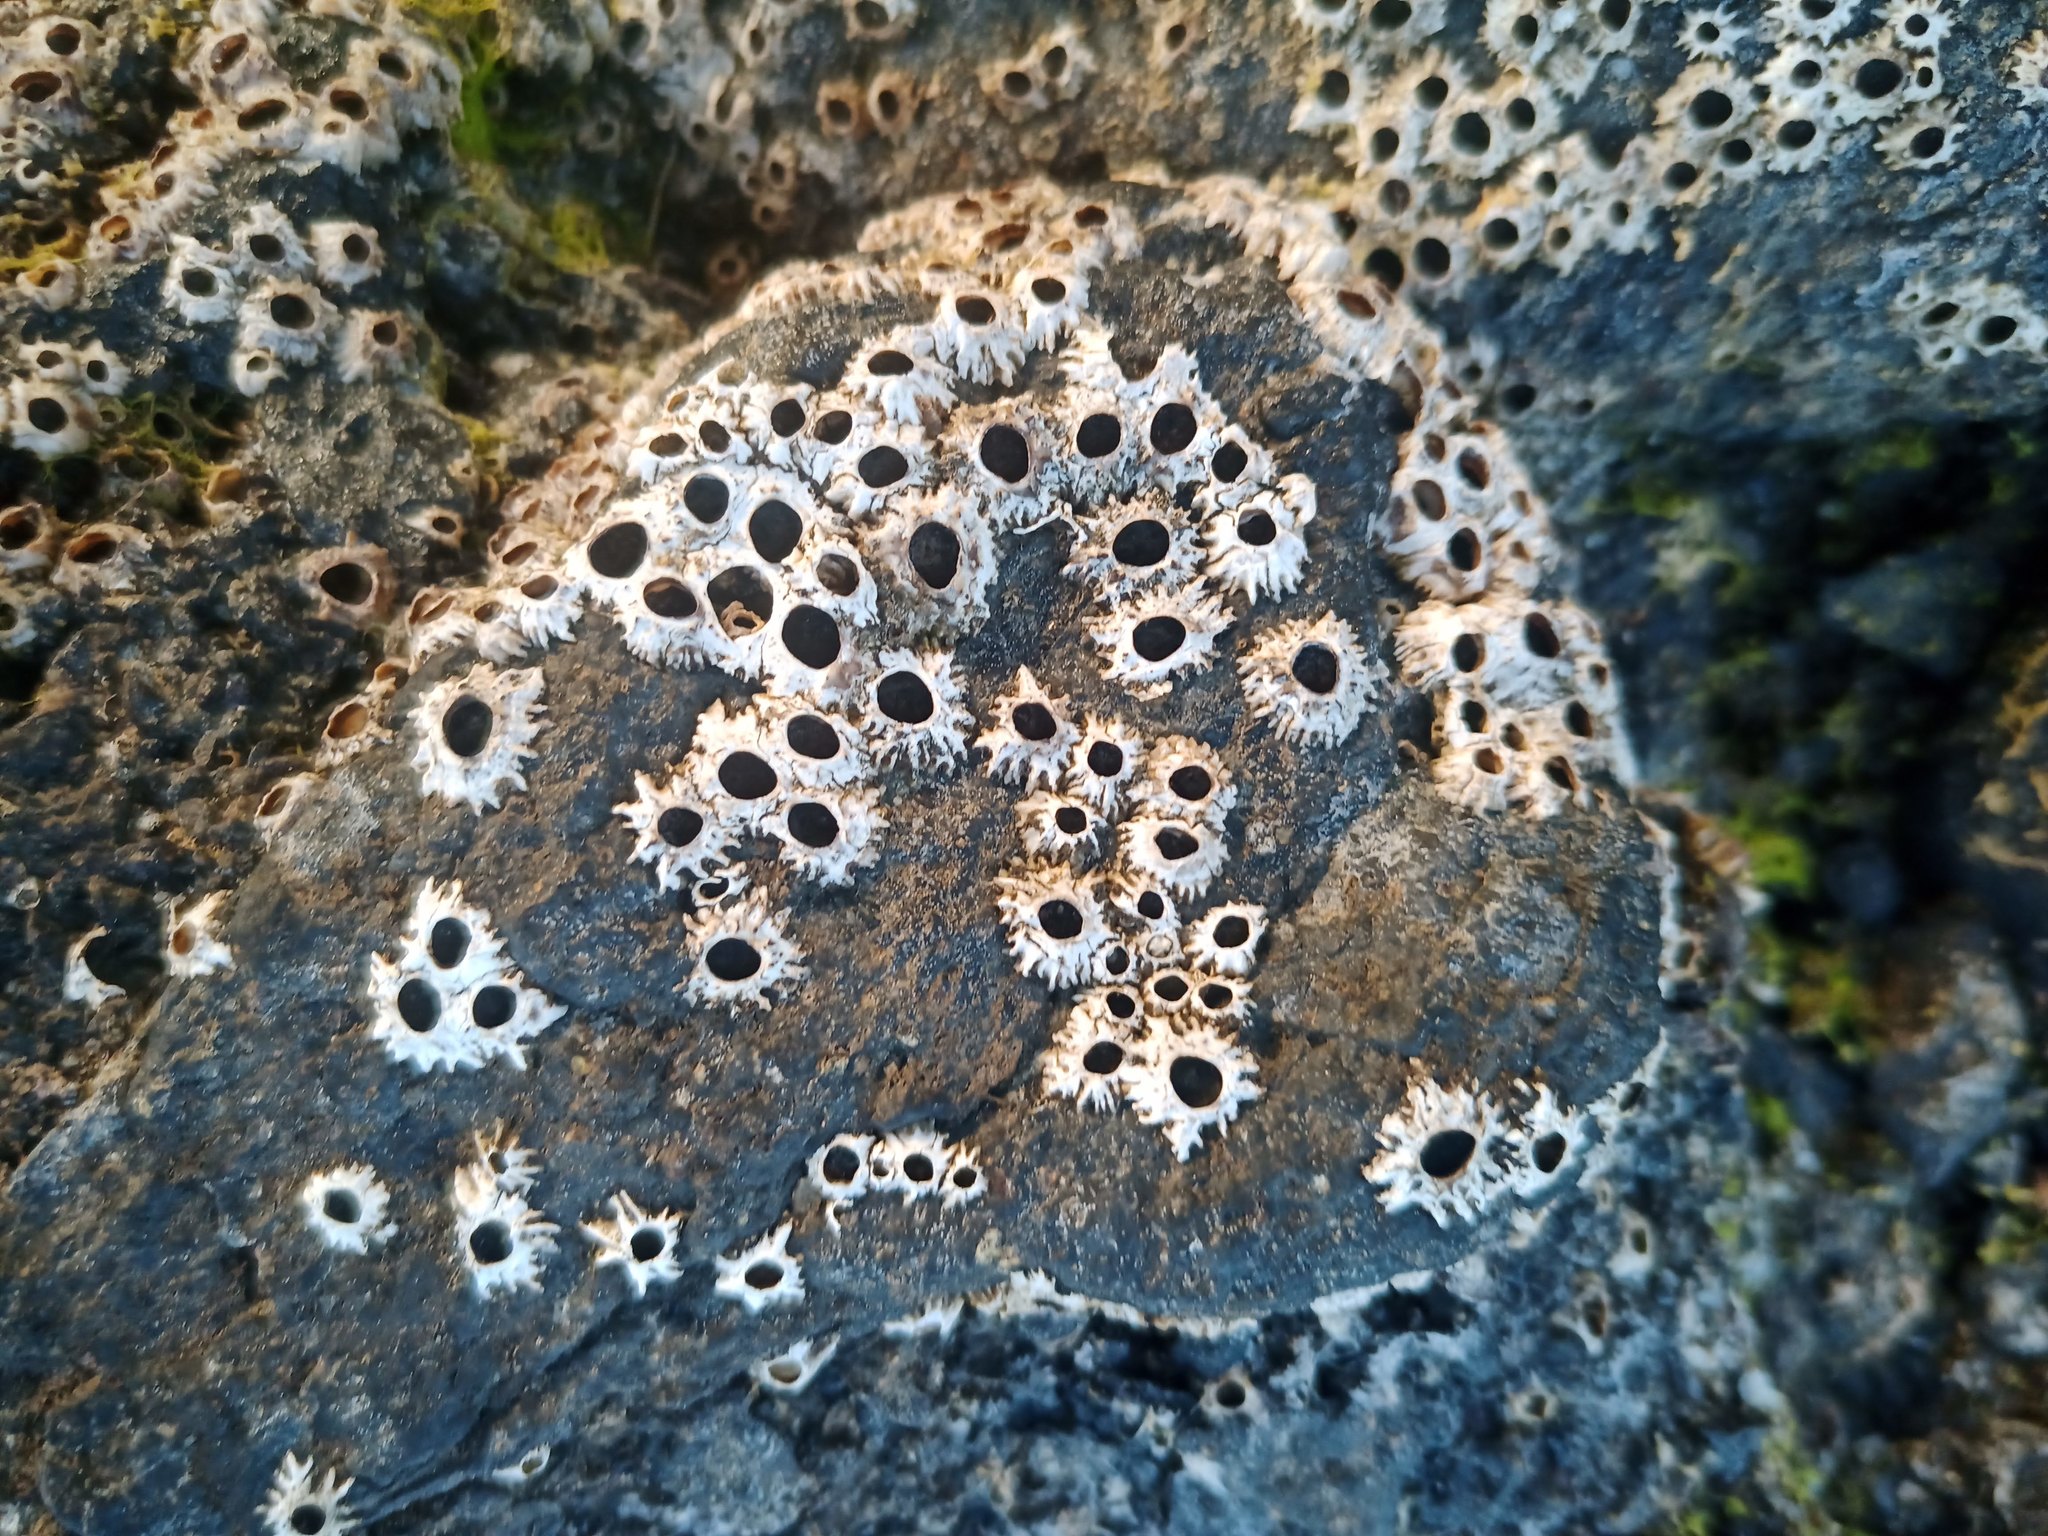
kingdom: Animalia
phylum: Arthropoda
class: Maxillopoda
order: Sessilia
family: Chthamalidae
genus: Chthamalus
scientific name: Chthamalus stellatus
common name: Poli's stellate barnacle
